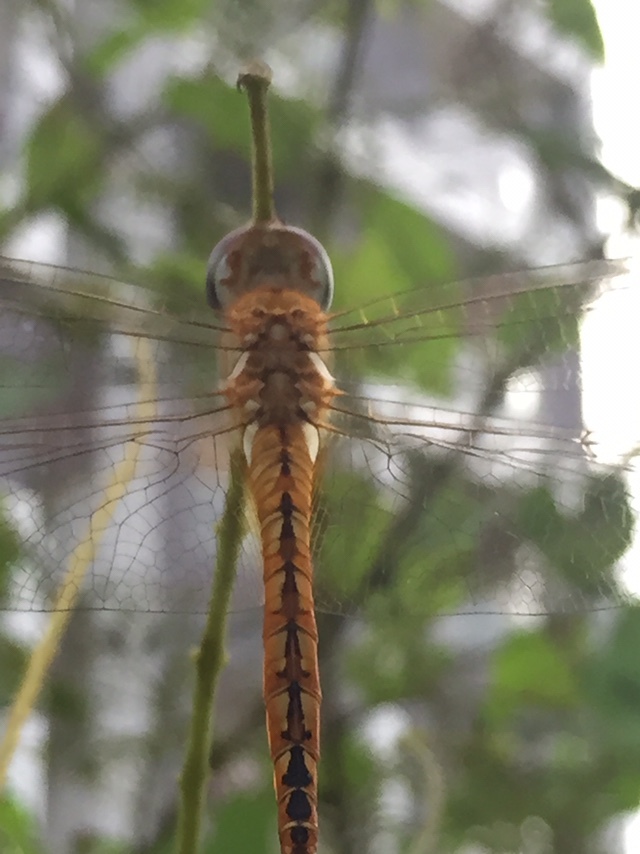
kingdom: Animalia
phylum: Arthropoda
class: Insecta
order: Odonata
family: Libellulidae
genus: Pantala
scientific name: Pantala flavescens
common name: Wandering glider
